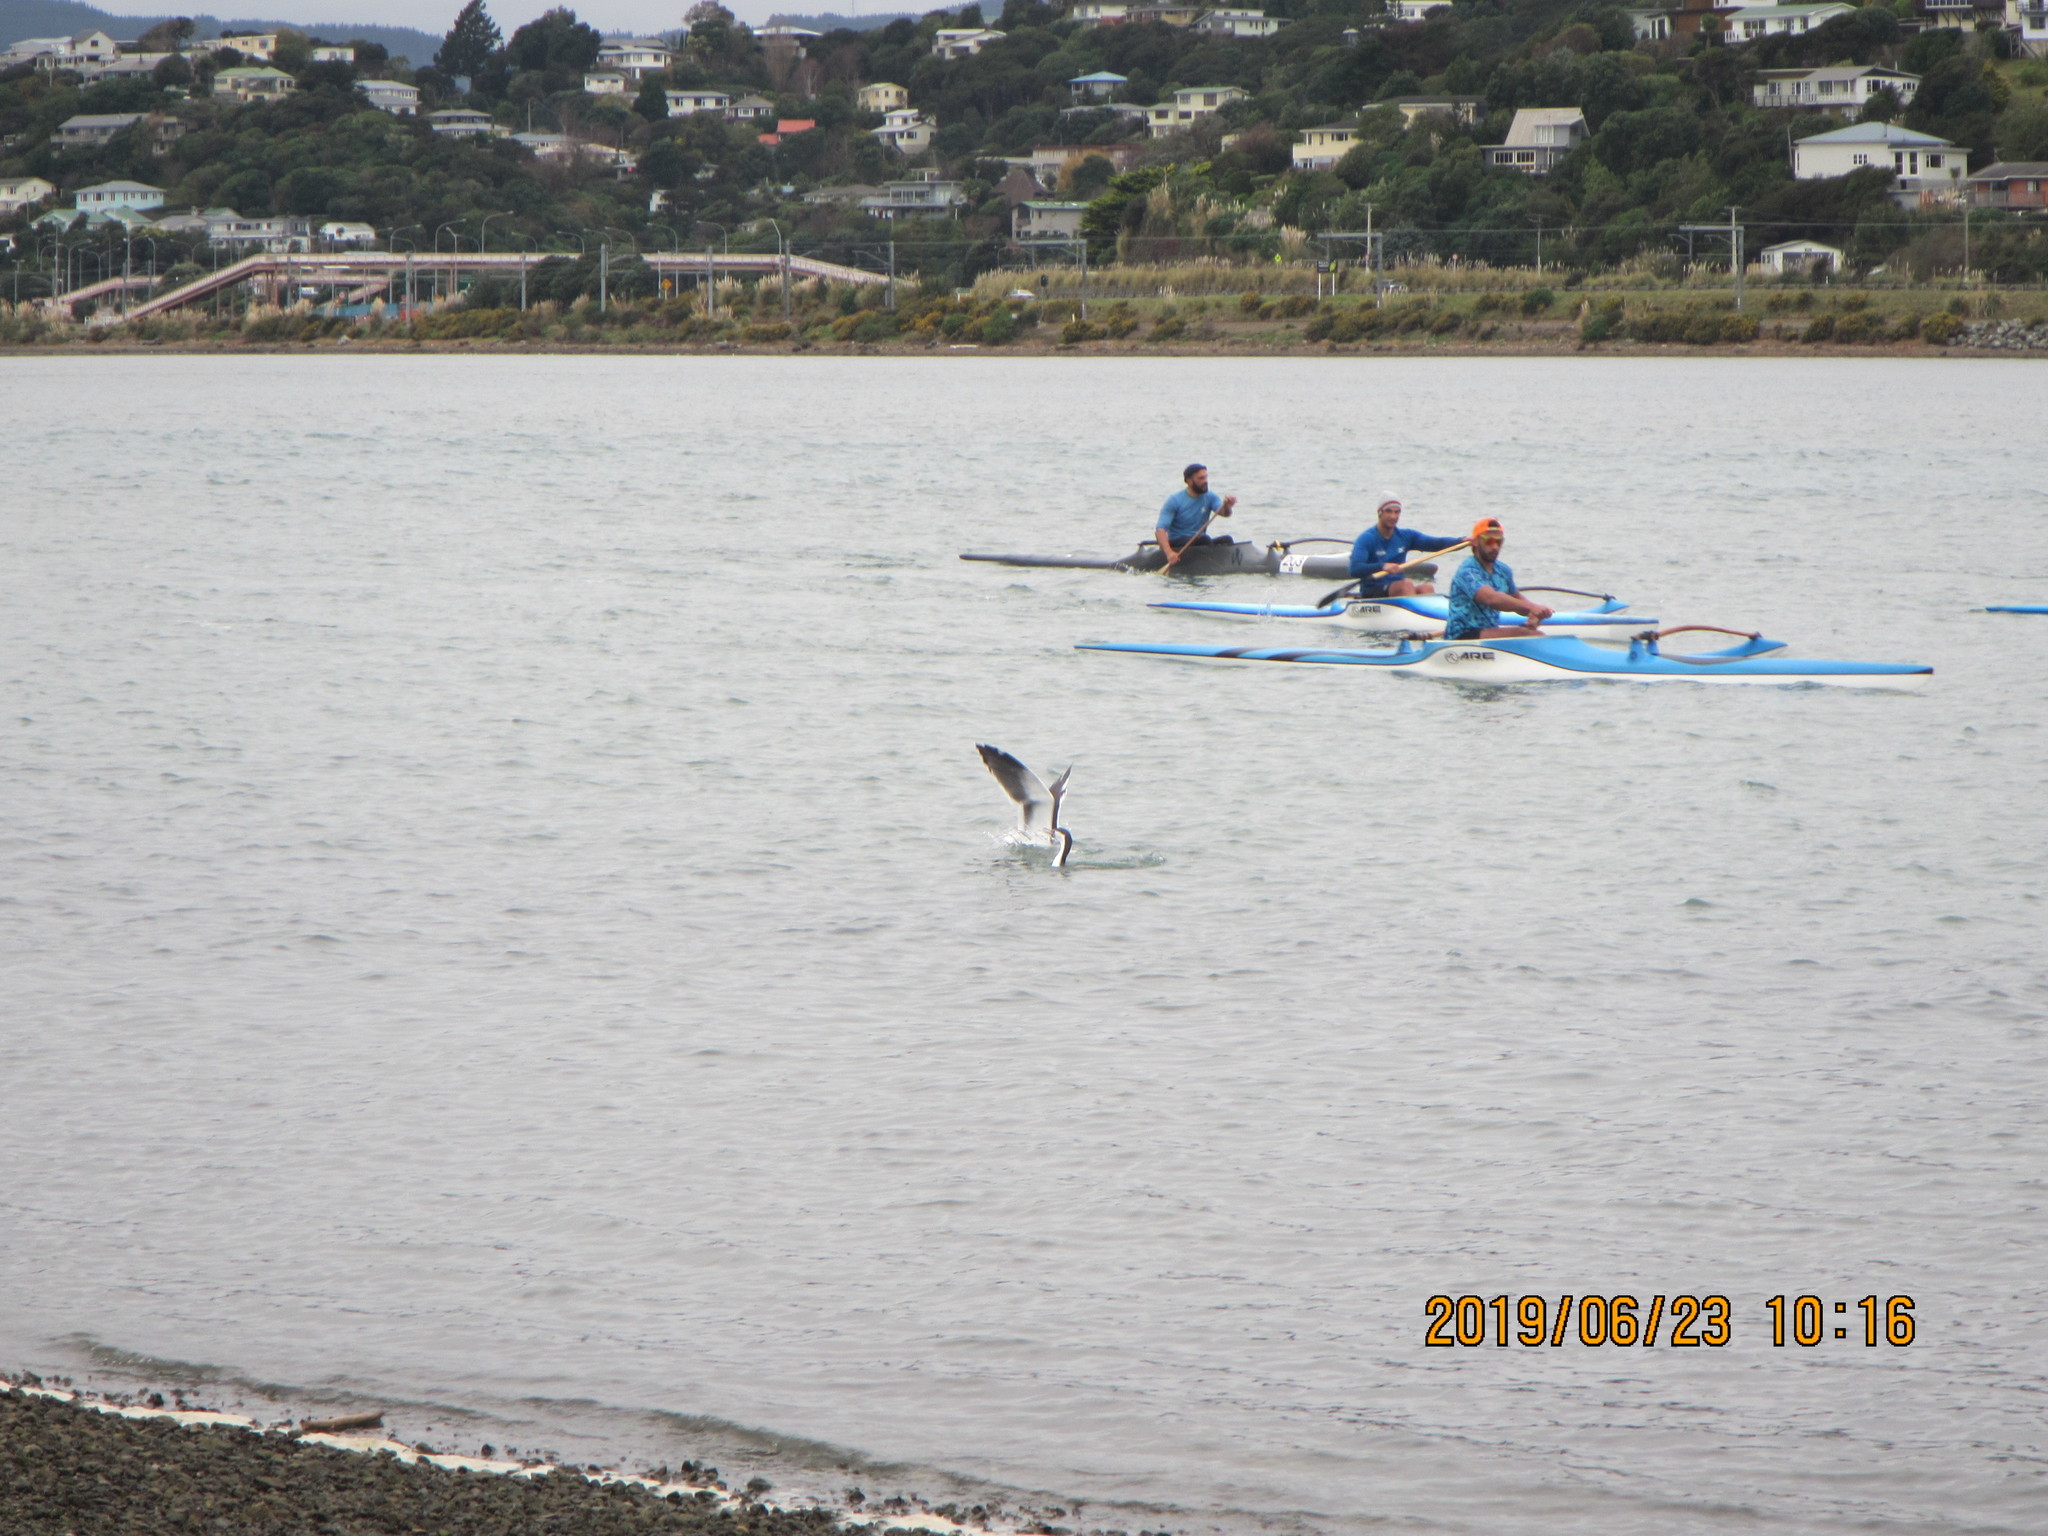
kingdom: Animalia
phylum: Chordata
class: Aves
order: Suliformes
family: Phalacrocoracidae
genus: Phalacrocorax
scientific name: Phalacrocorax varius
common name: Pied cormorant
